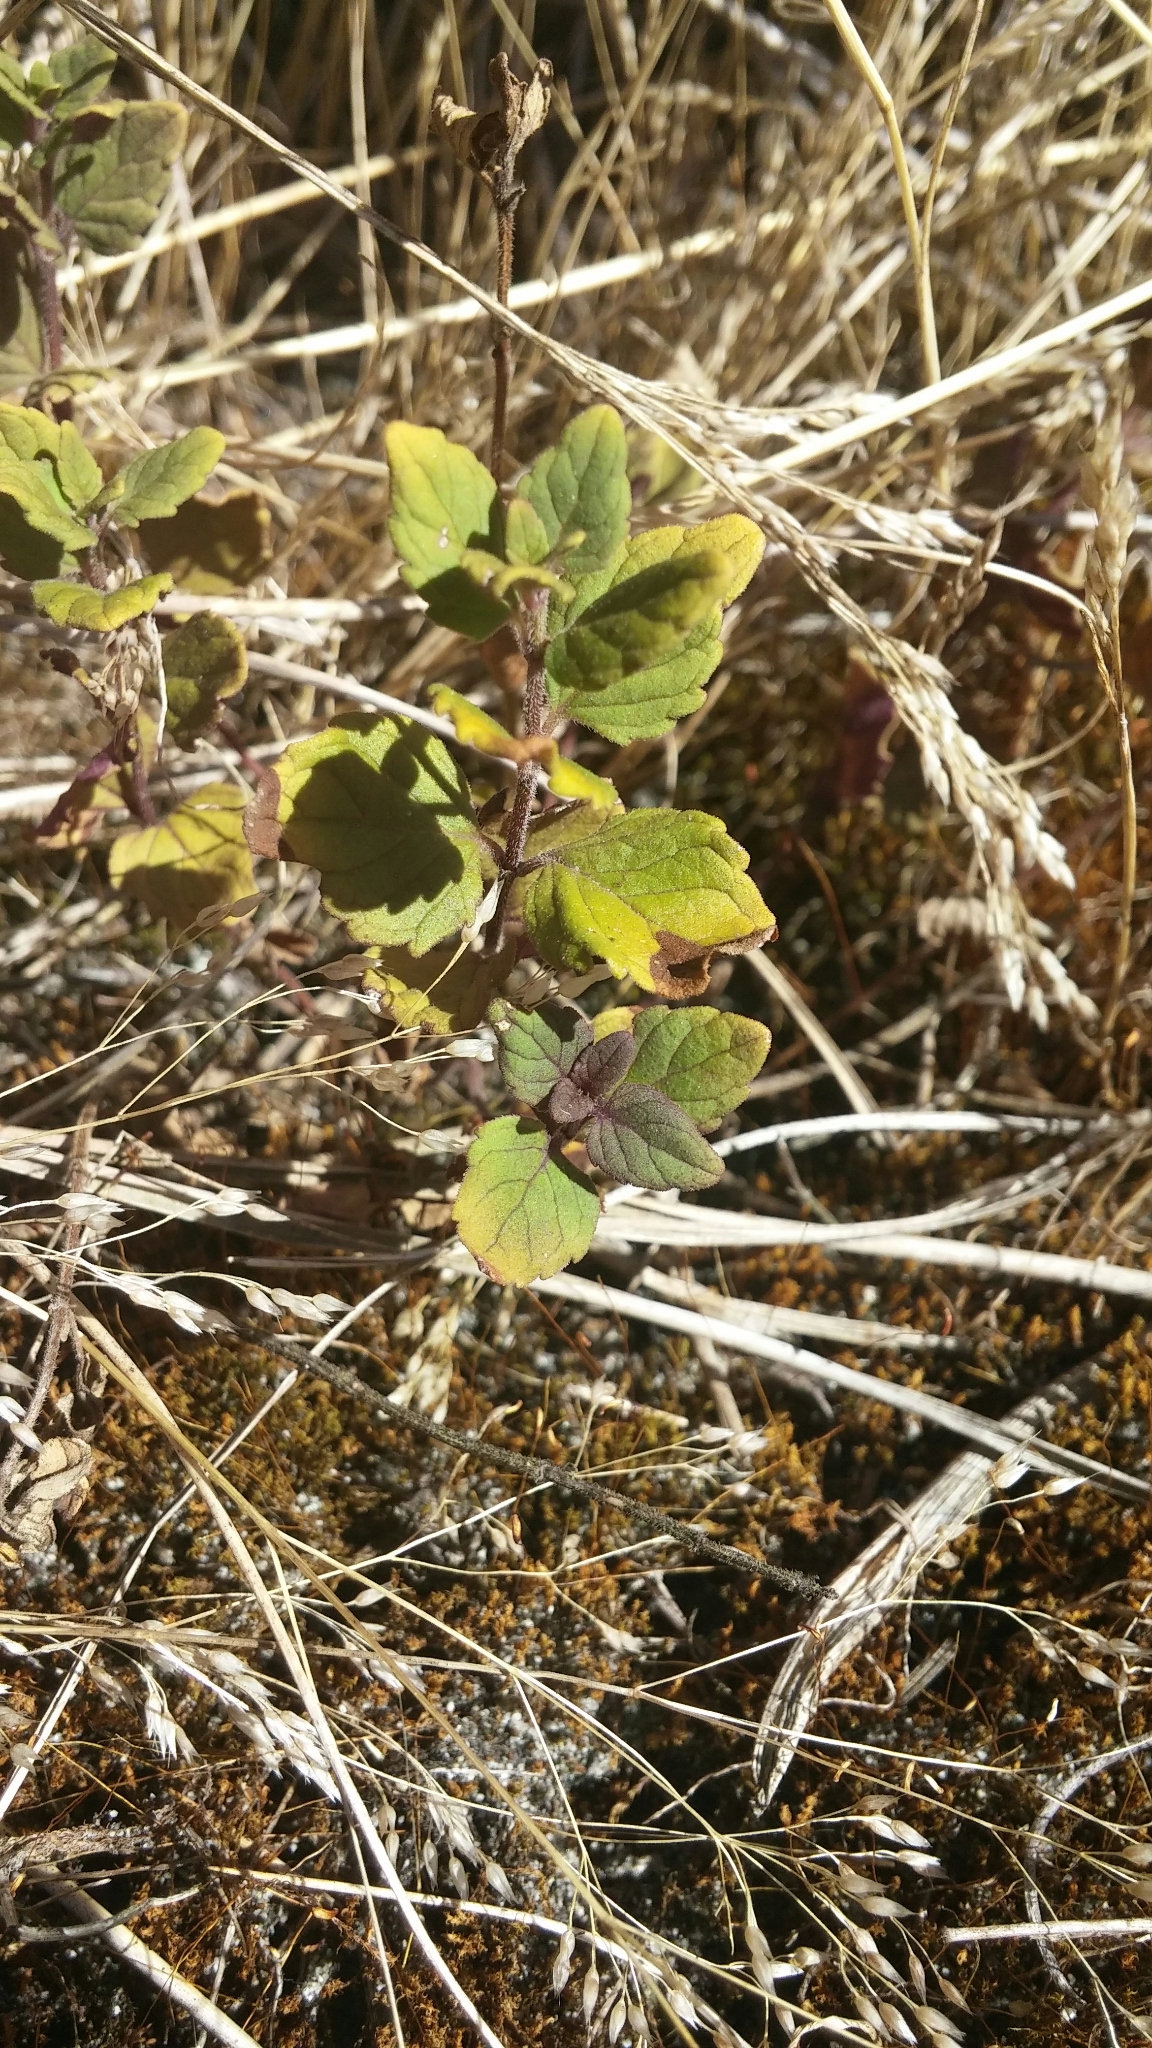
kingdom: Plantae
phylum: Tracheophyta
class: Magnoliopsida
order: Lamiales
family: Lamiaceae
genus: Micromeria
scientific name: Micromeria douglasii
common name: Yerba buena
